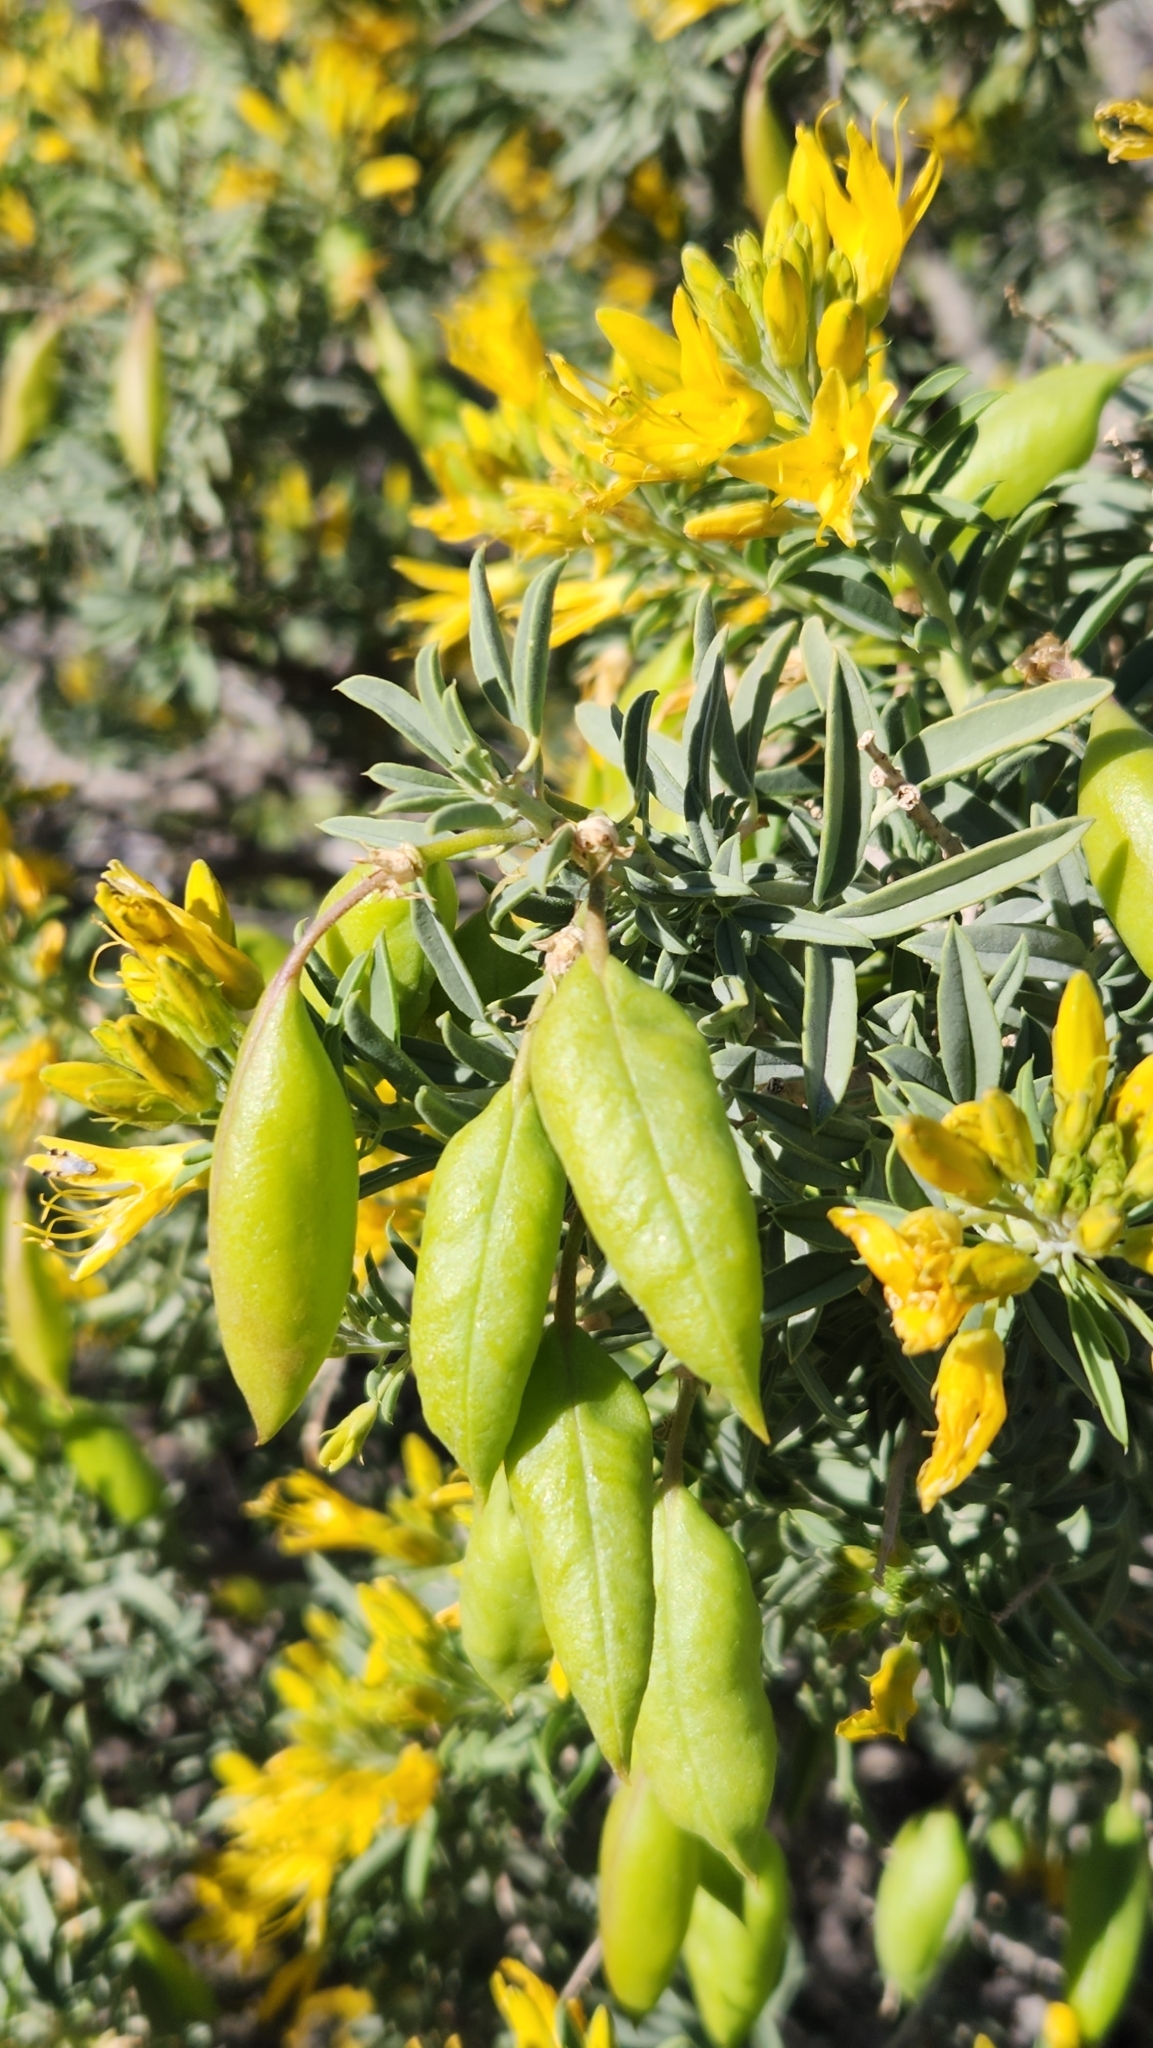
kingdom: Plantae
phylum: Tracheophyta
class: Magnoliopsida
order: Brassicales
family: Cleomaceae
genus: Cleomella
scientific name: Cleomella arborea
